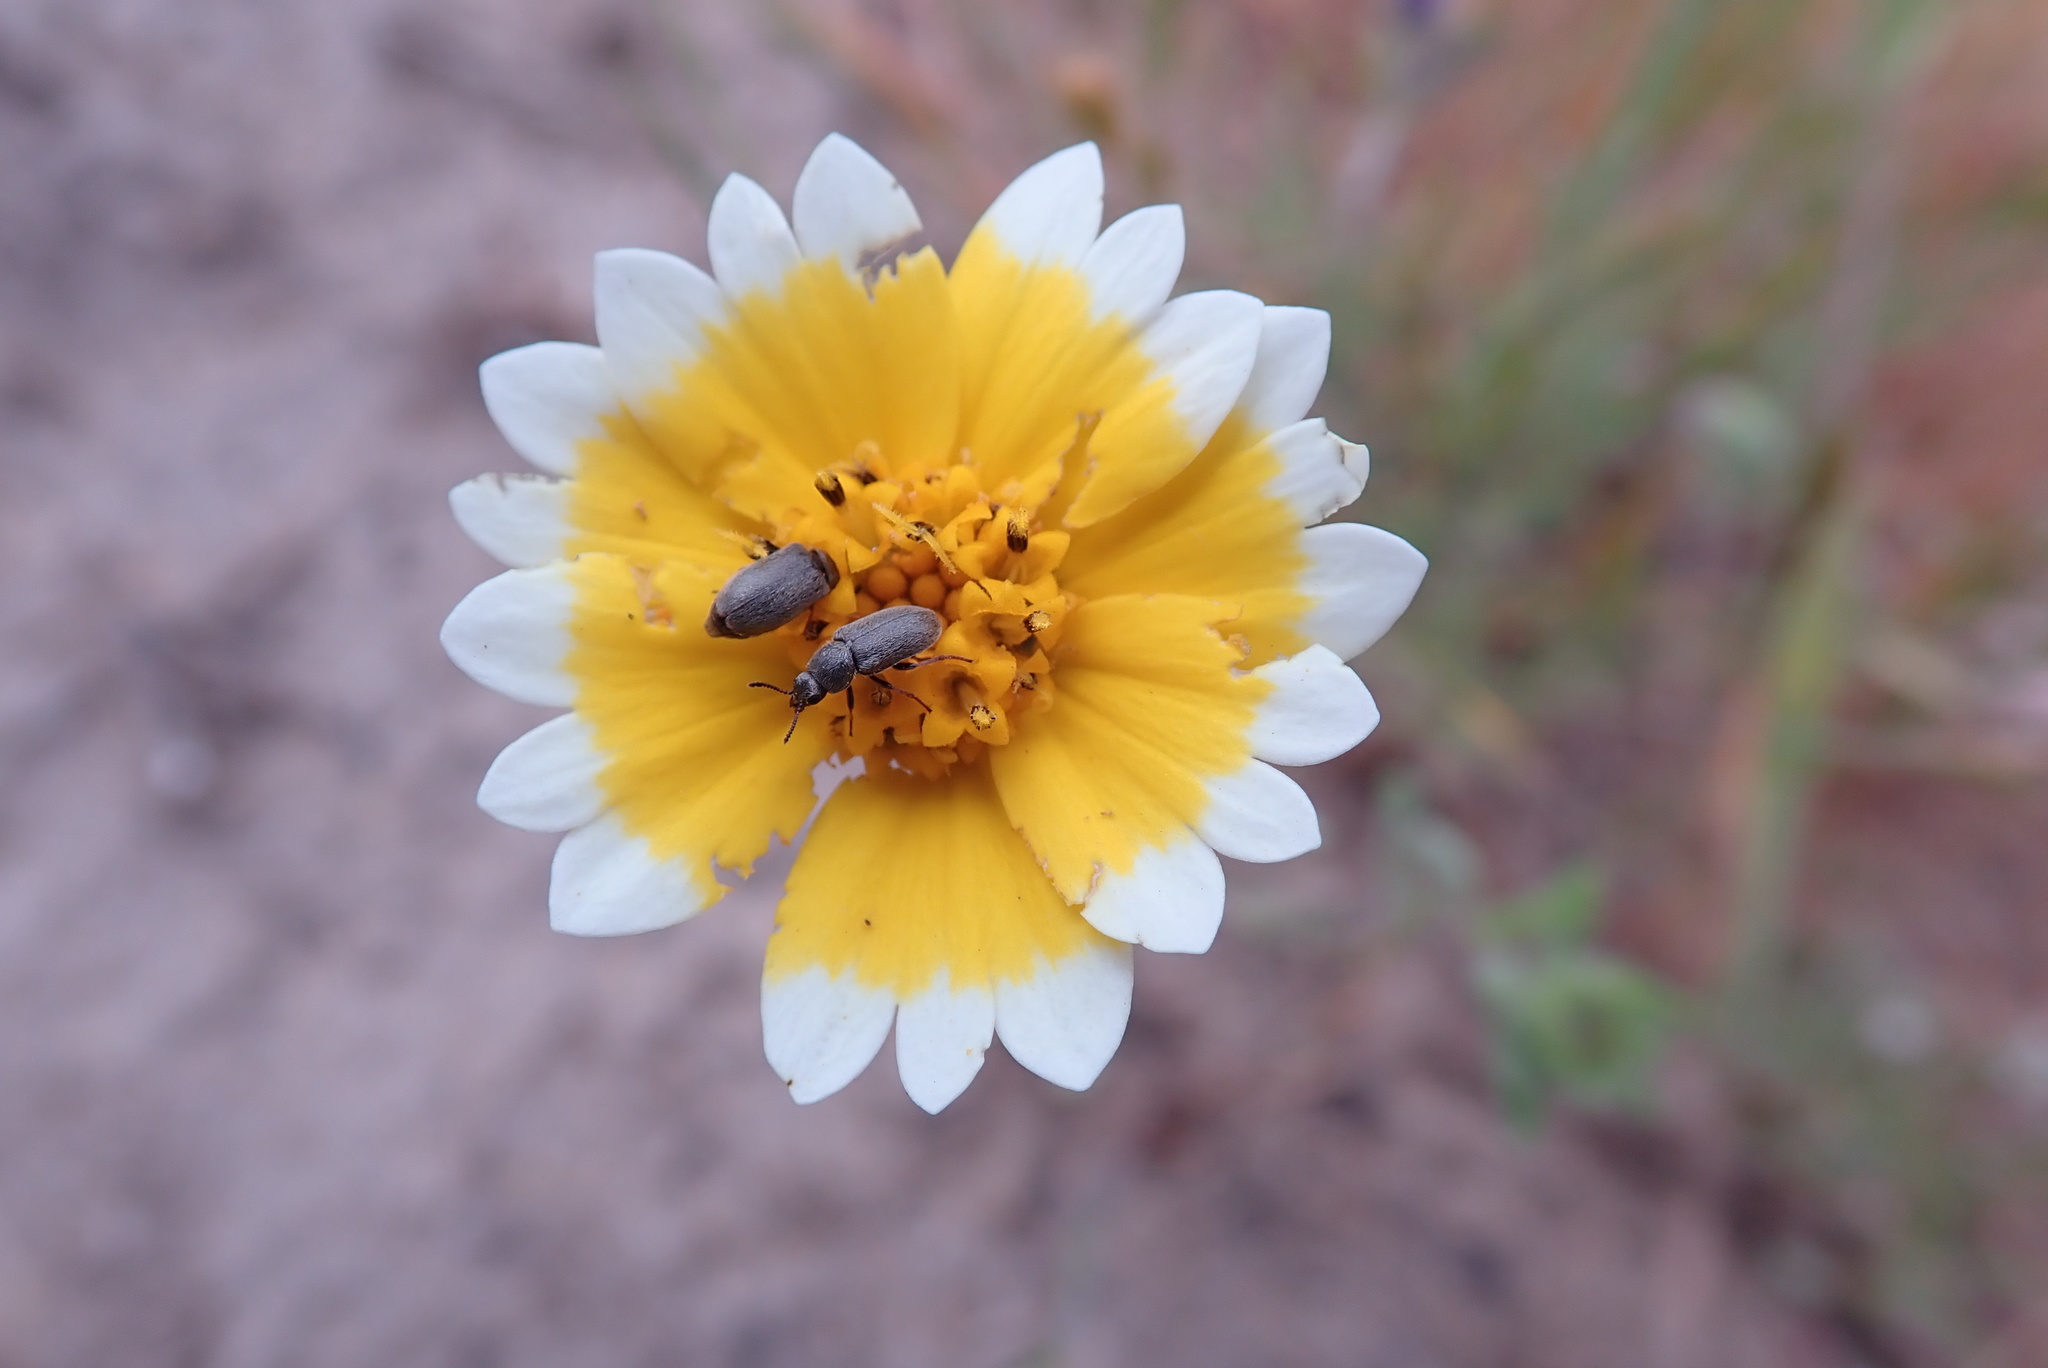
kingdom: Plantae
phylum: Tracheophyta
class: Magnoliopsida
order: Asterales
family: Asteraceae
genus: Layia
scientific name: Layia platyglossa
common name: Tidy-tips
